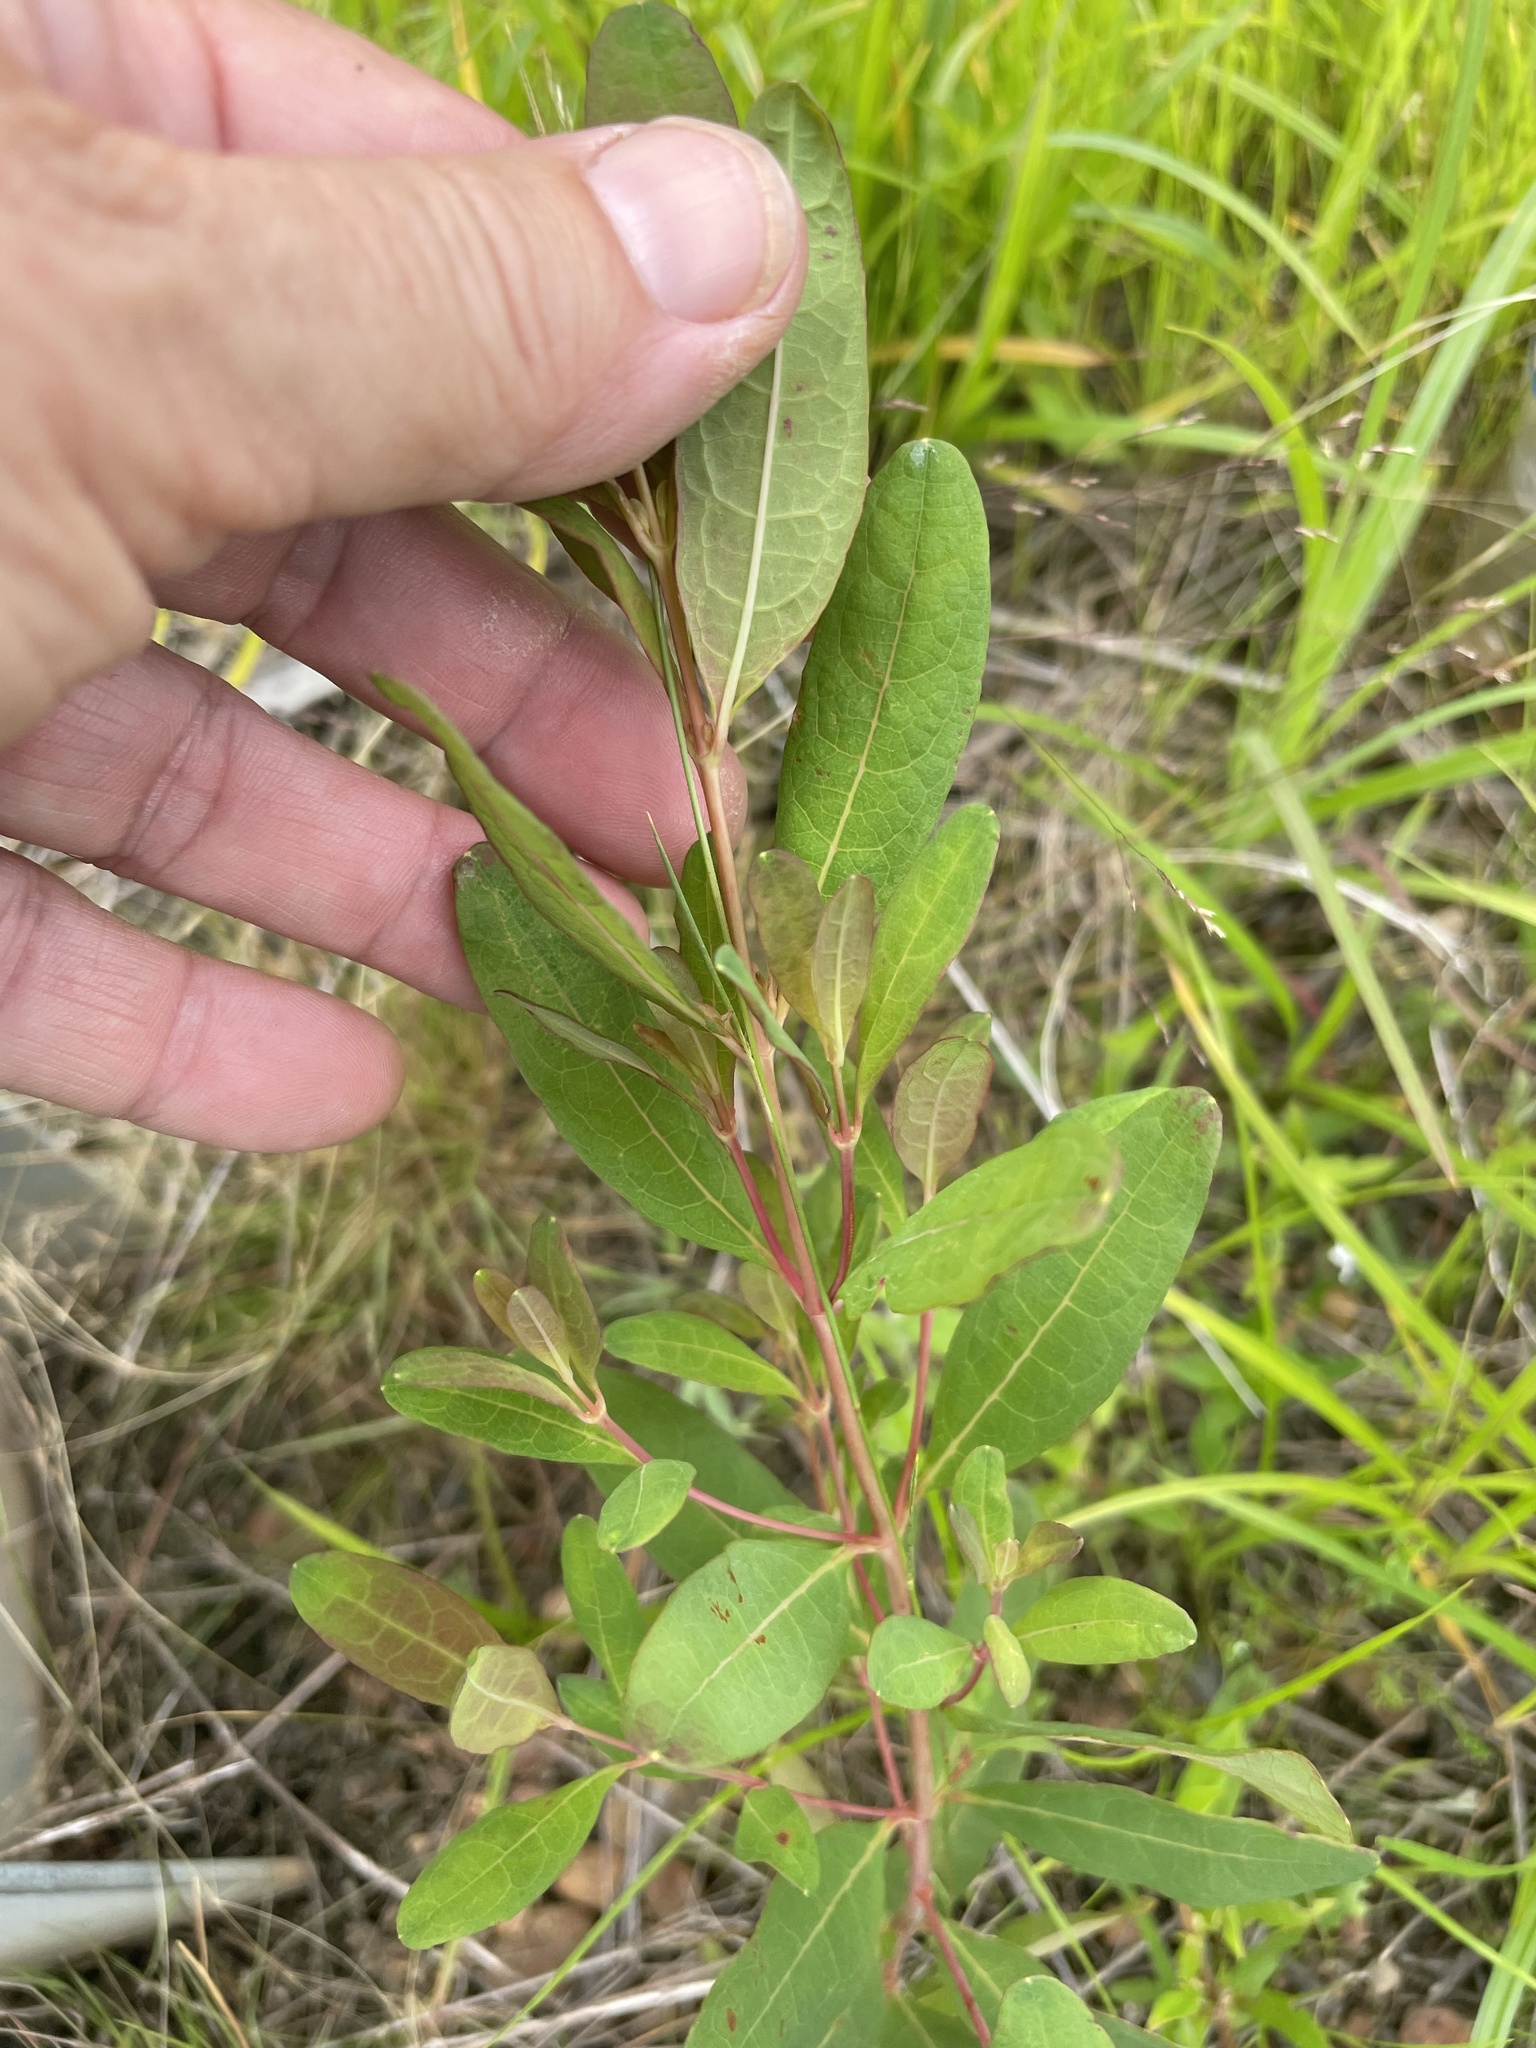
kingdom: Plantae
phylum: Tracheophyta
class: Magnoliopsida
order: Malpighiales
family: Hypericaceae
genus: Triadenum
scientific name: Triadenum walteri
